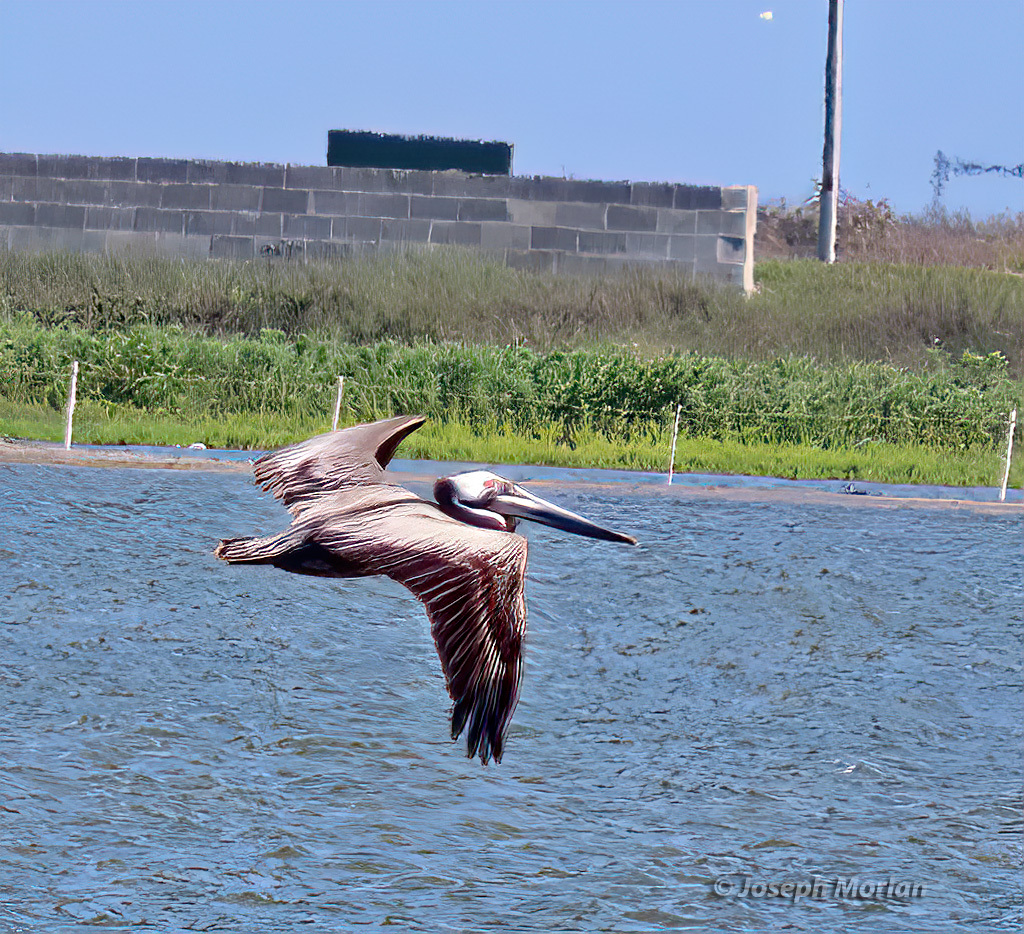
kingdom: Animalia
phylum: Chordata
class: Aves
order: Pelecaniformes
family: Pelecanidae
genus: Pelecanus
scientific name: Pelecanus occidentalis
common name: Brown pelican
